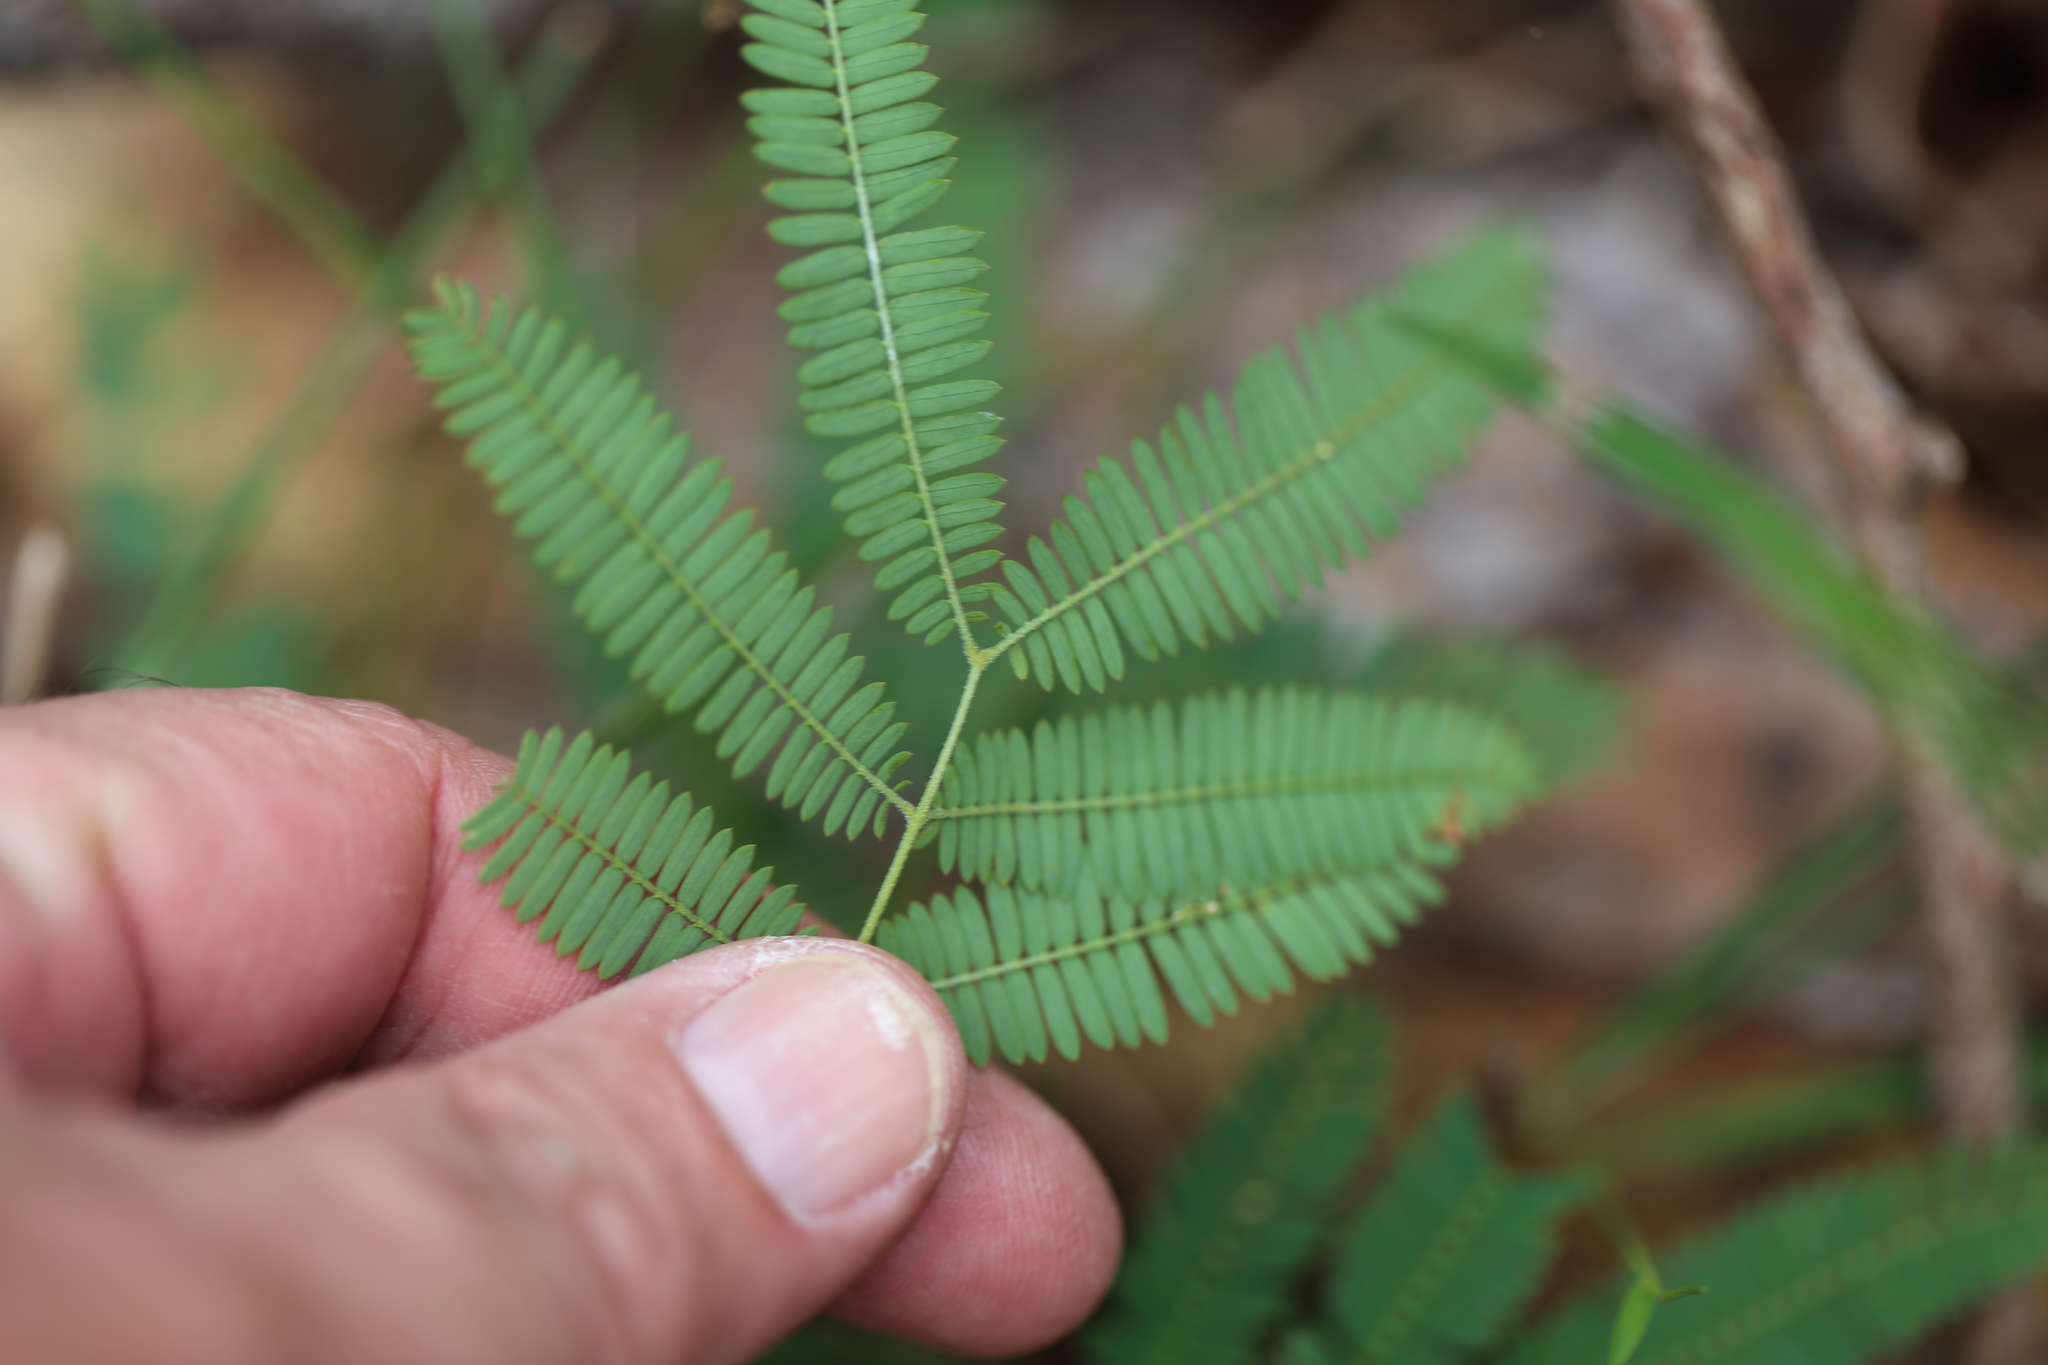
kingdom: Plantae
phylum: Tracheophyta
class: Magnoliopsida
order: Fabales
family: Fabaceae
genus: Acacia
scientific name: Acacia maidenii
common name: Maiden's wattle
